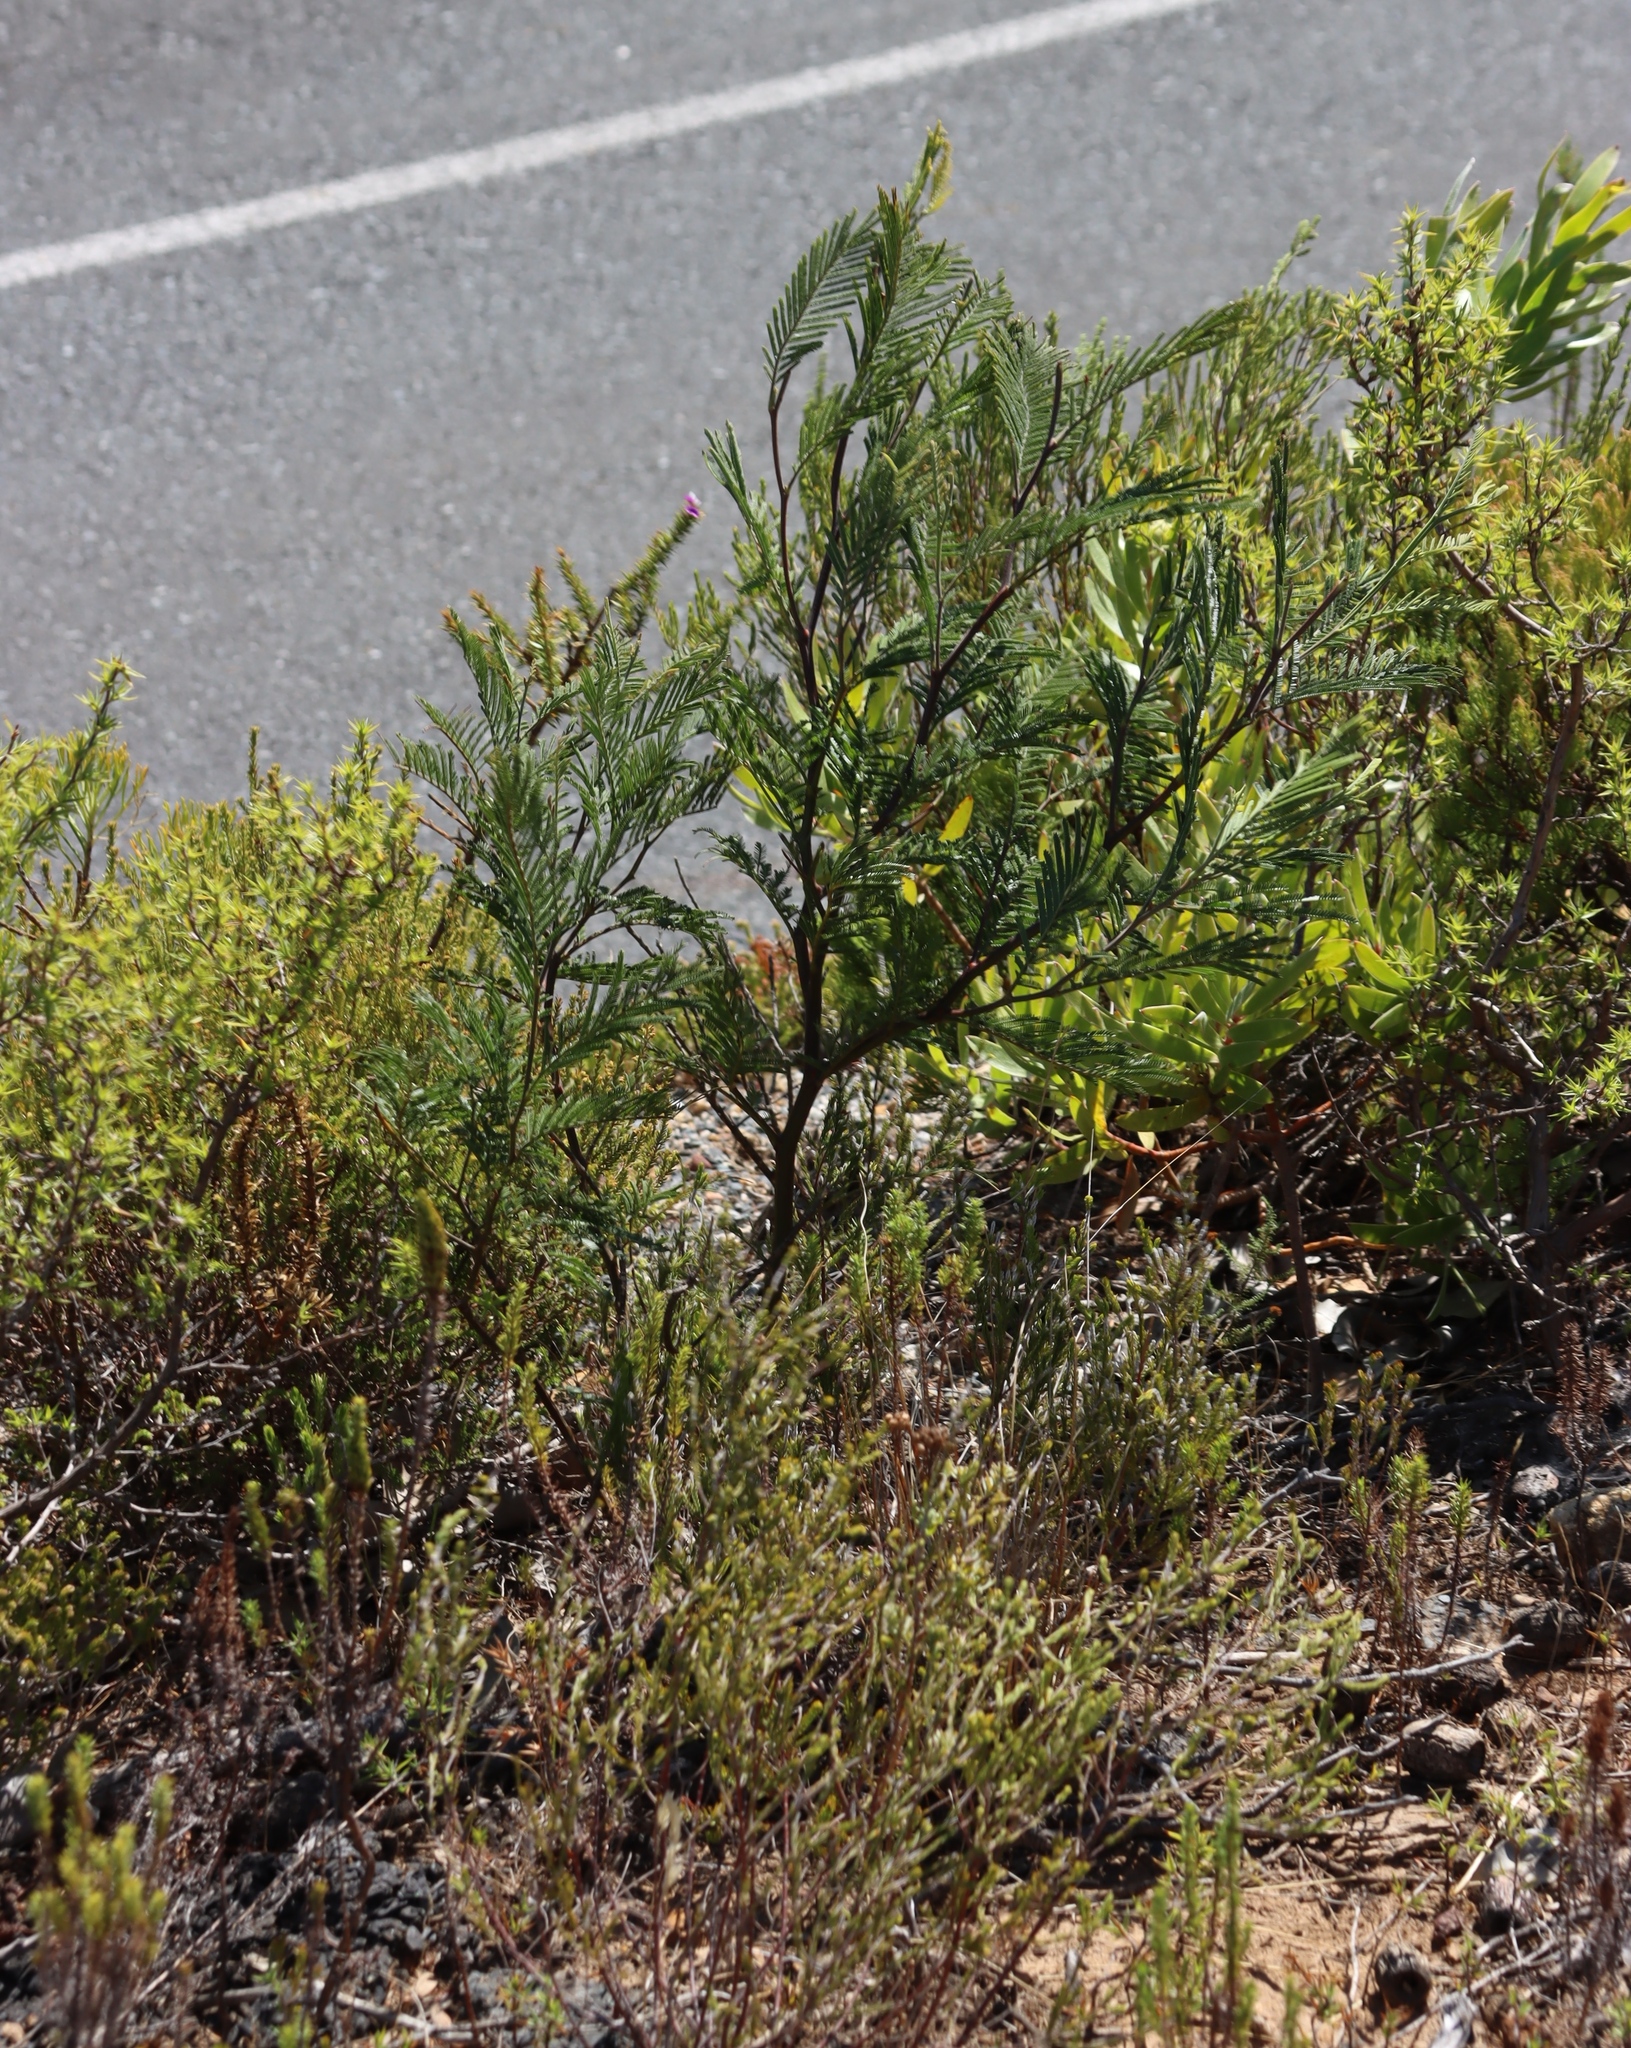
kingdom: Plantae
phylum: Tracheophyta
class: Magnoliopsida
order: Fabales
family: Fabaceae
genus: Acacia
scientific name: Acacia mearnsii
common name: Black wattle
